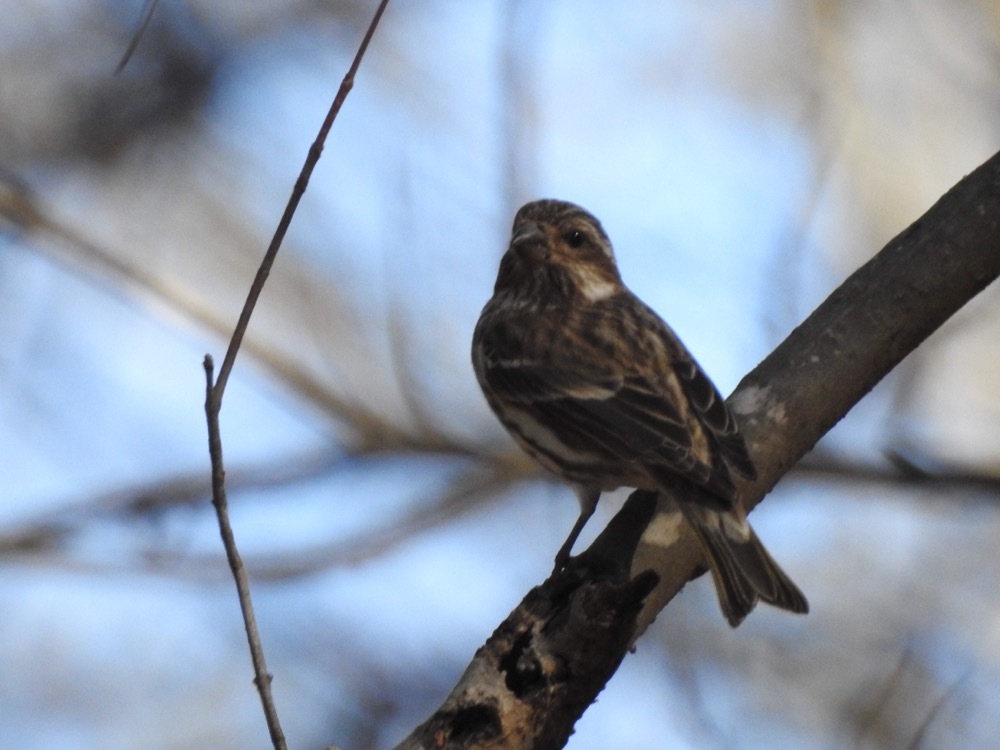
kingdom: Animalia
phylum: Chordata
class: Aves
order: Passeriformes
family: Fringillidae
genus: Haemorhous
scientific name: Haemorhous purpureus
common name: Purple finch
